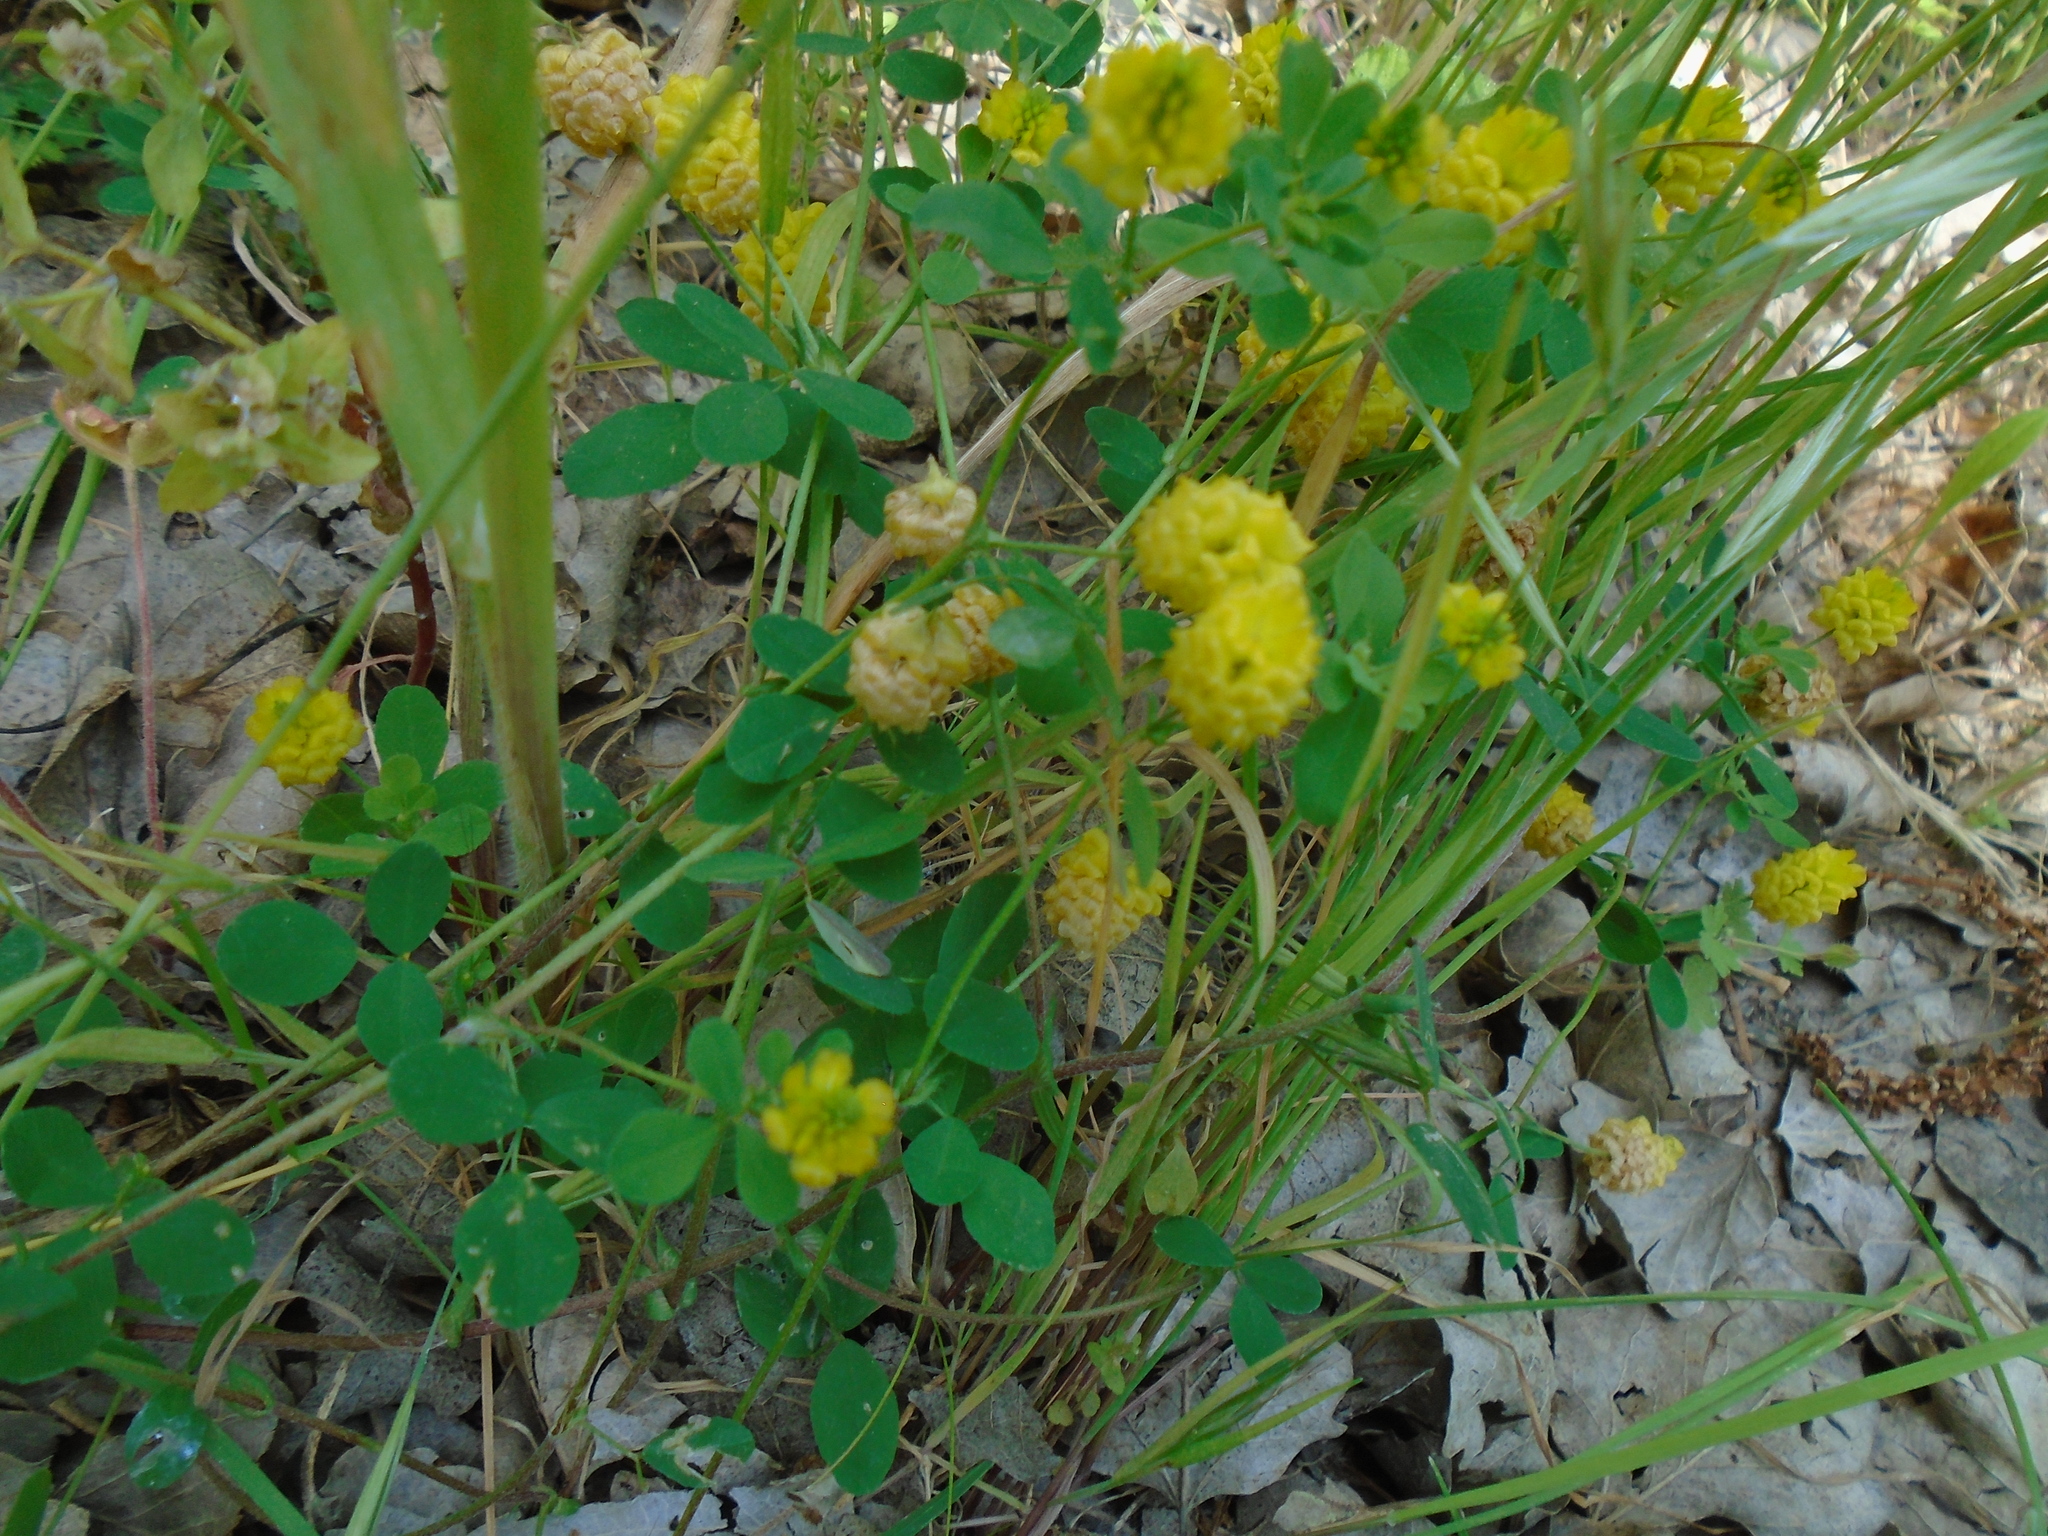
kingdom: Plantae
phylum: Tracheophyta
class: Magnoliopsida
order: Fabales
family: Fabaceae
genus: Trifolium
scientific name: Trifolium campestre
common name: Field clover
